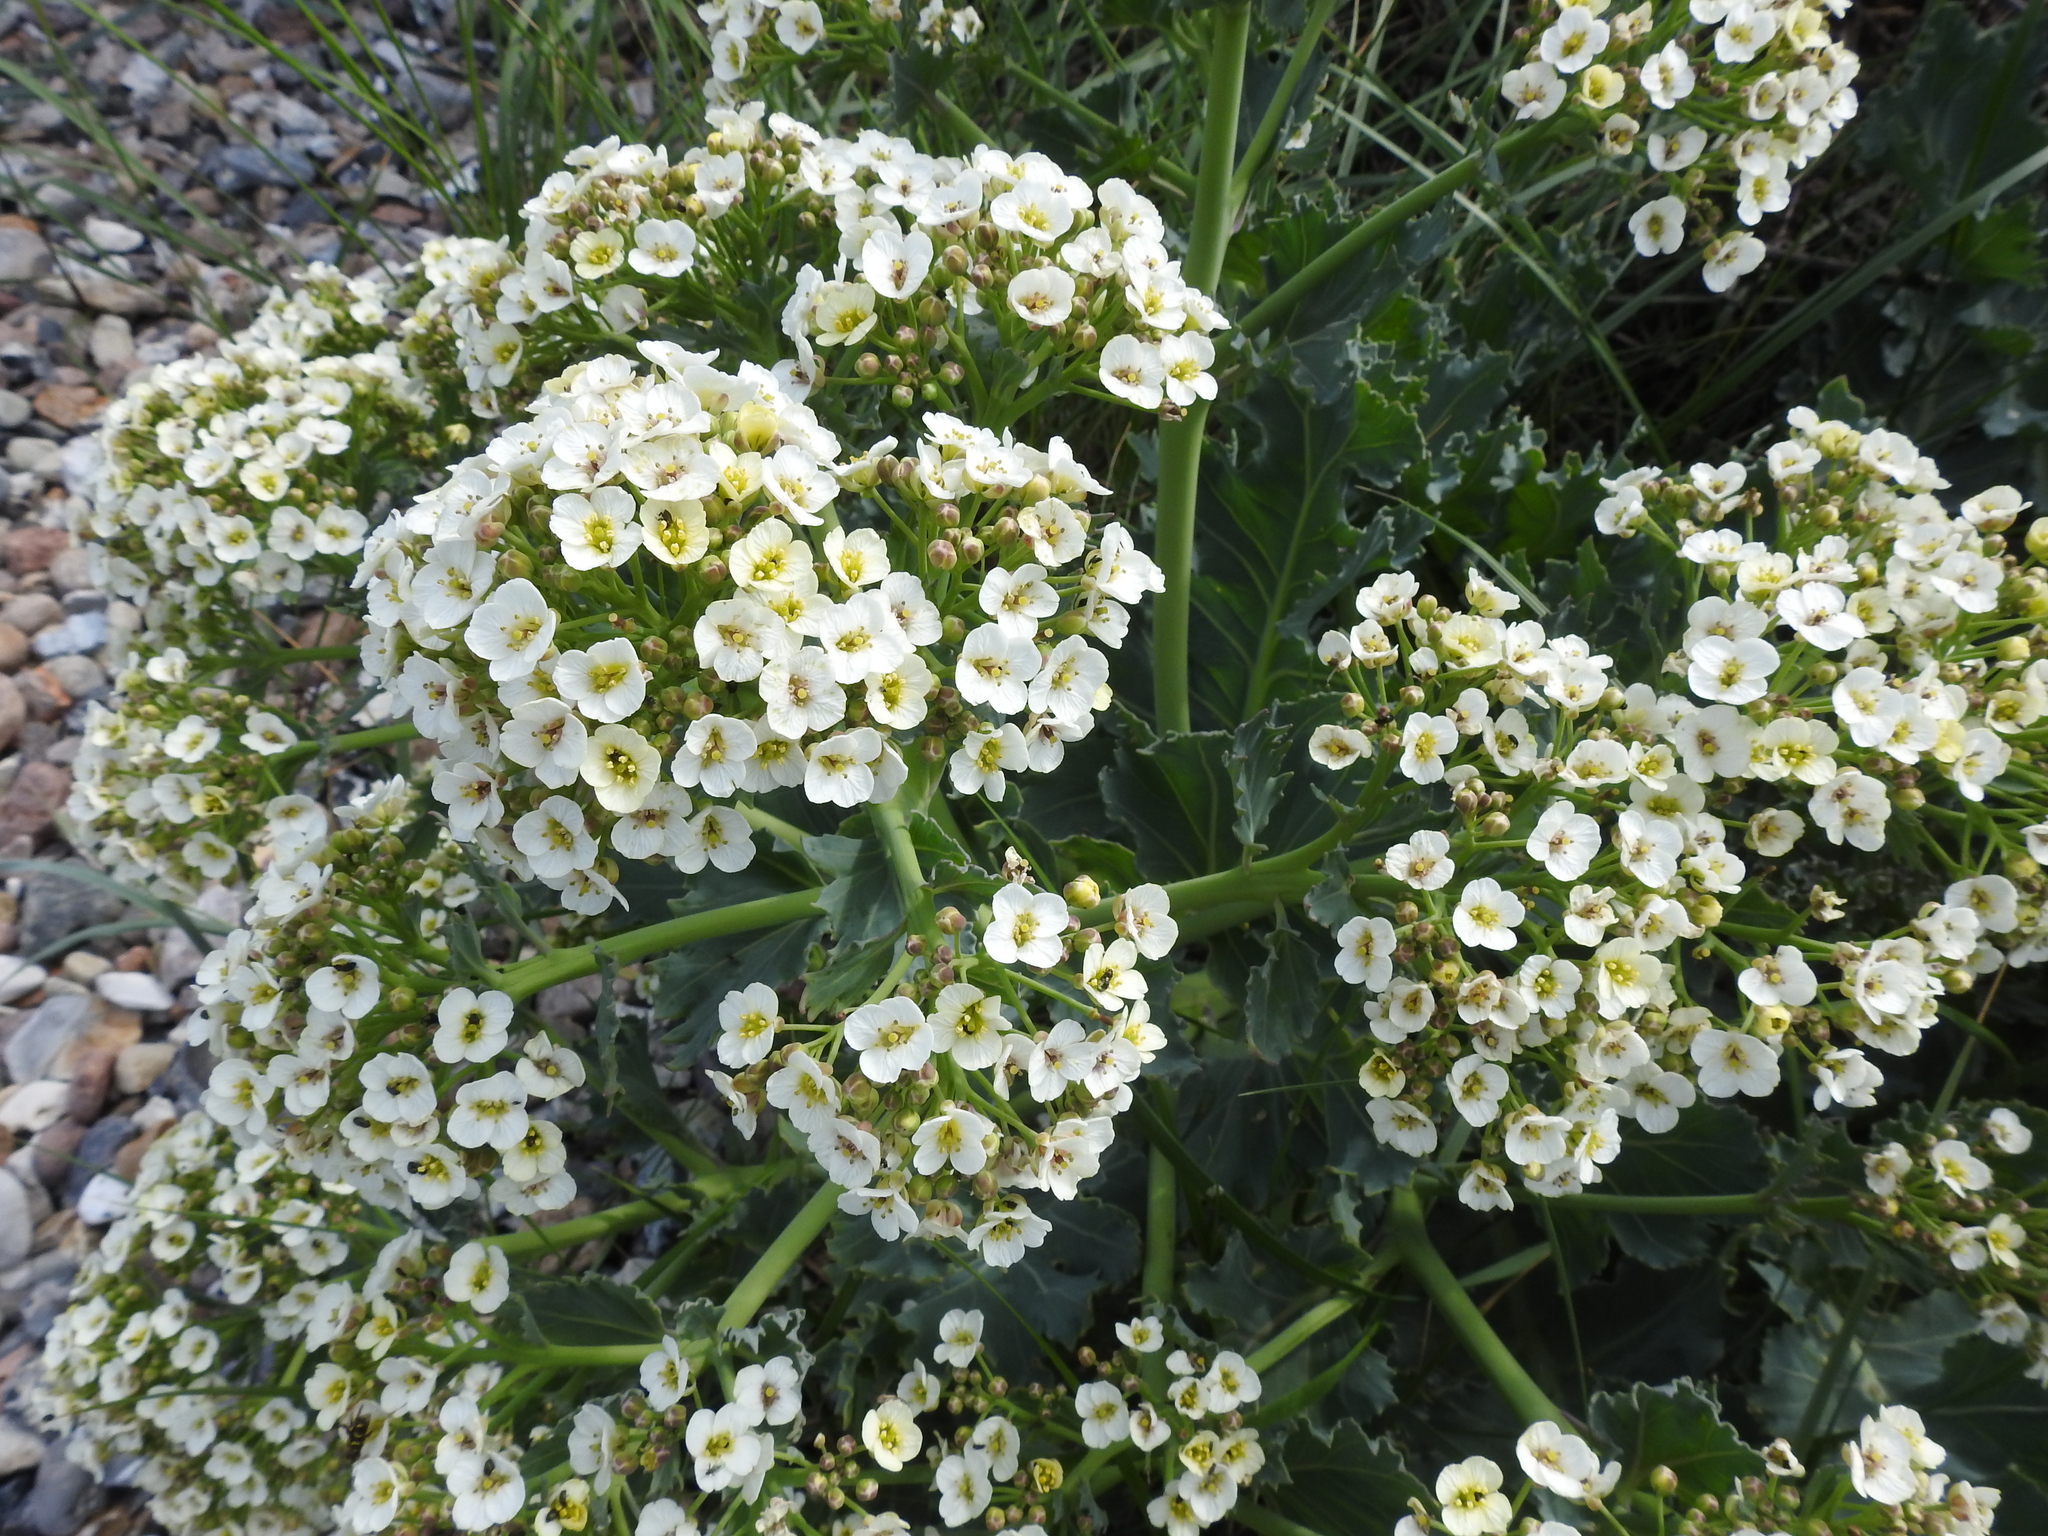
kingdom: Plantae
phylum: Tracheophyta
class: Magnoliopsida
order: Brassicales
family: Brassicaceae
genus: Crambe
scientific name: Crambe maritima
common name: Sea-kale
